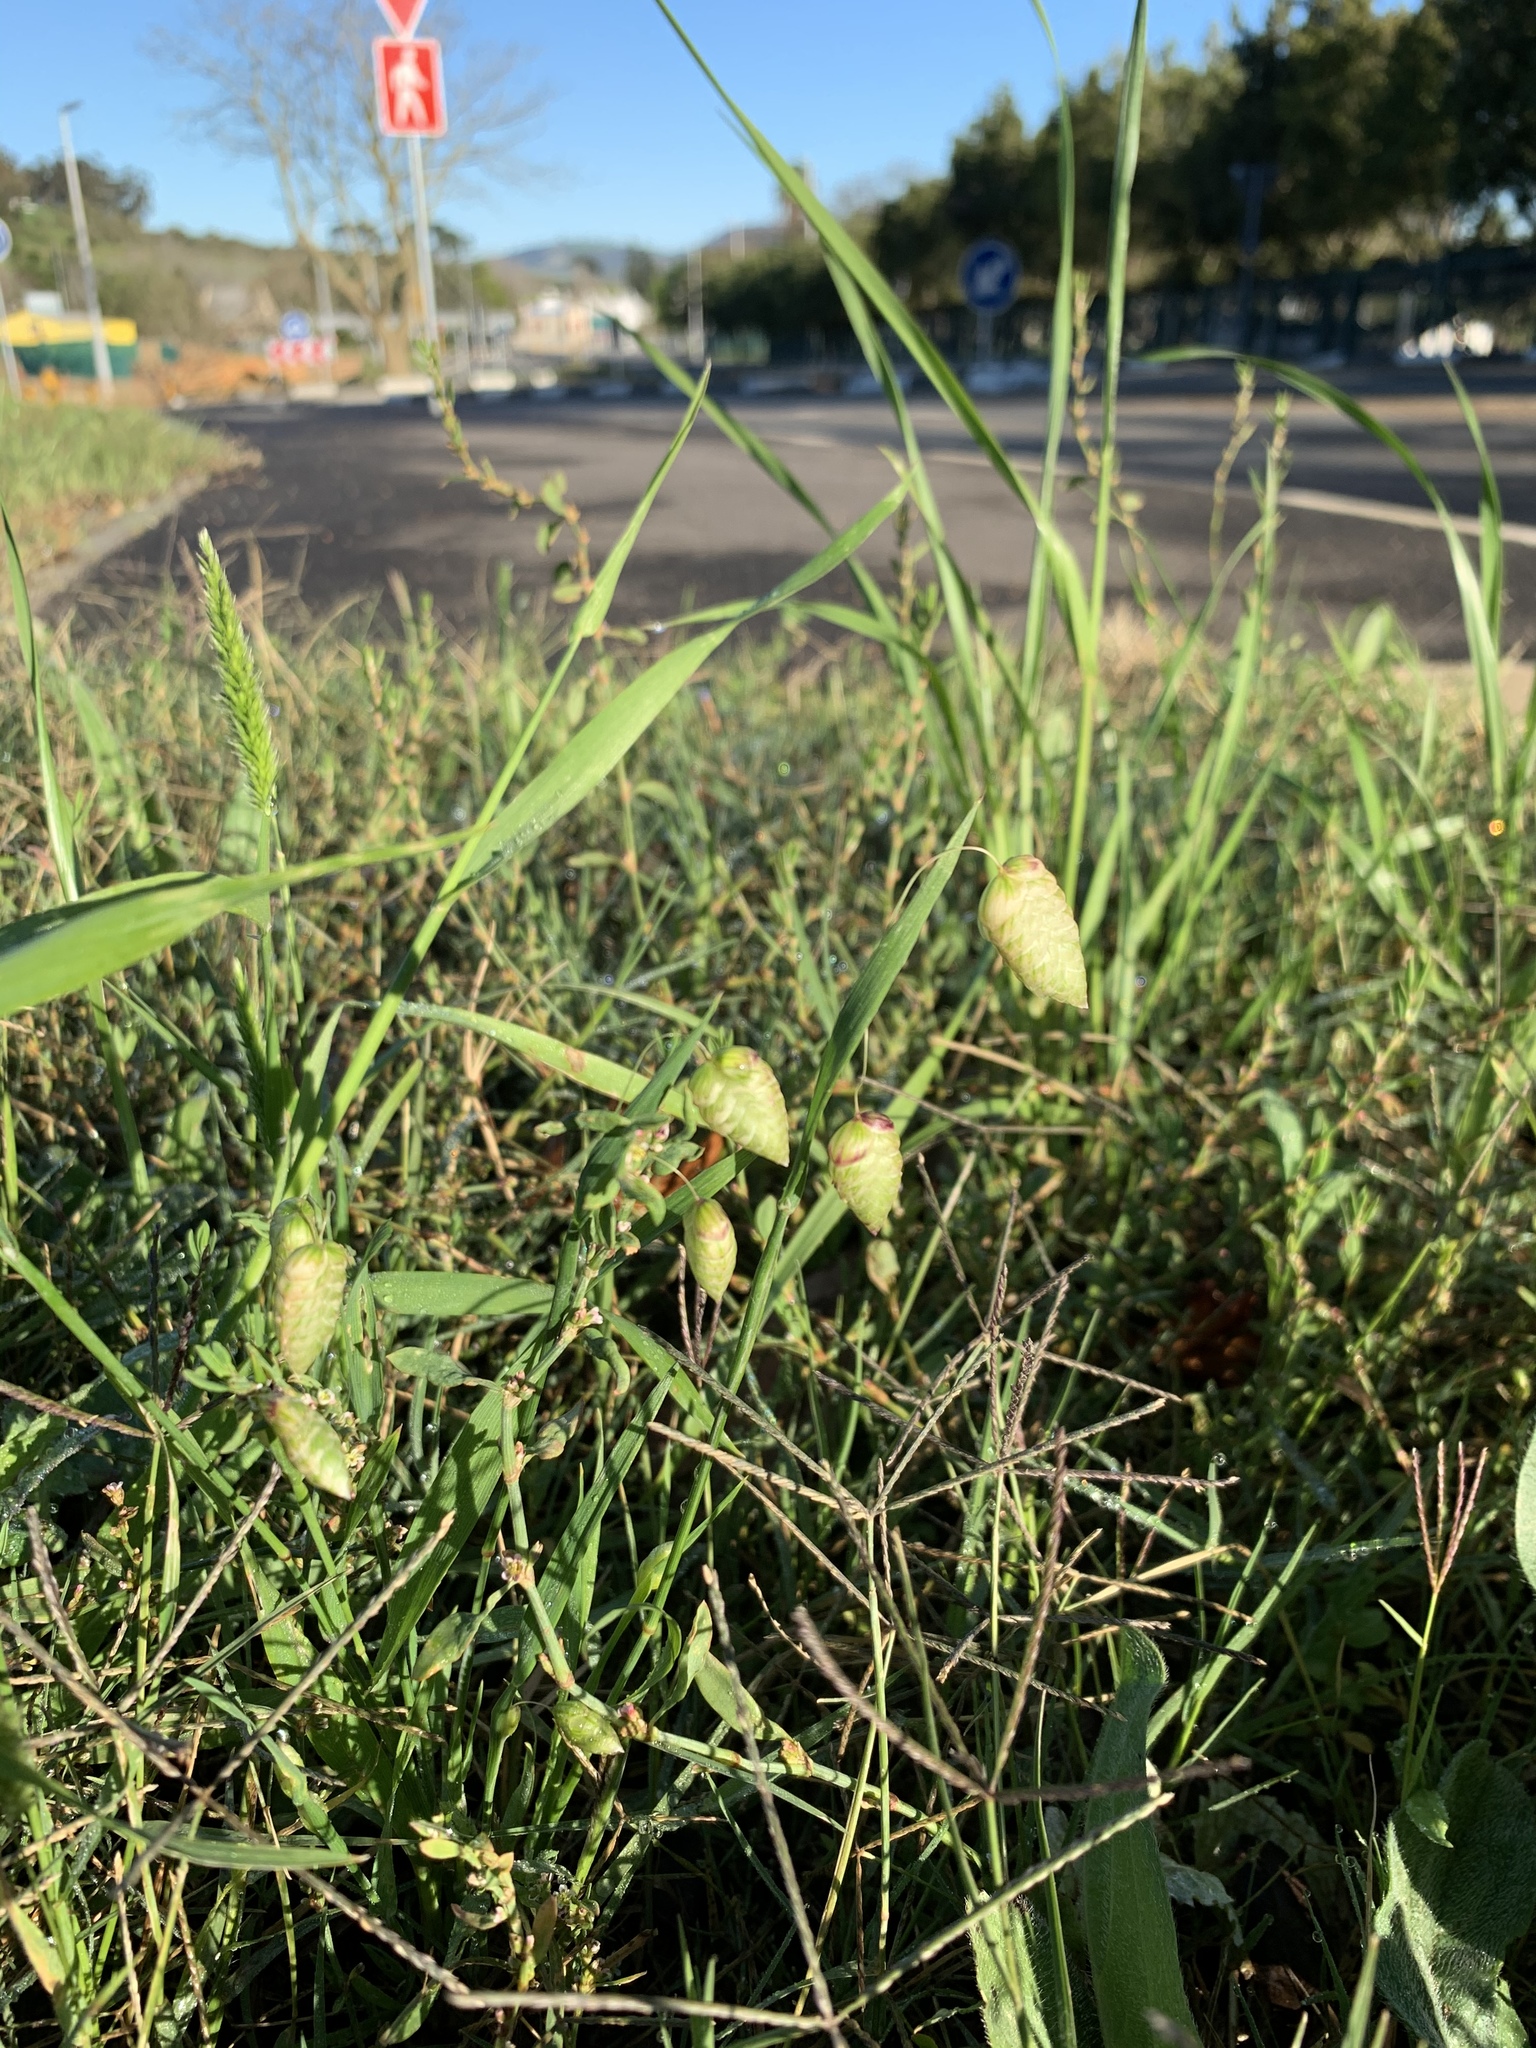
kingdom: Plantae
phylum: Tracheophyta
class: Liliopsida
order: Poales
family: Poaceae
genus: Briza
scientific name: Briza maxima
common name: Big quakinggrass
